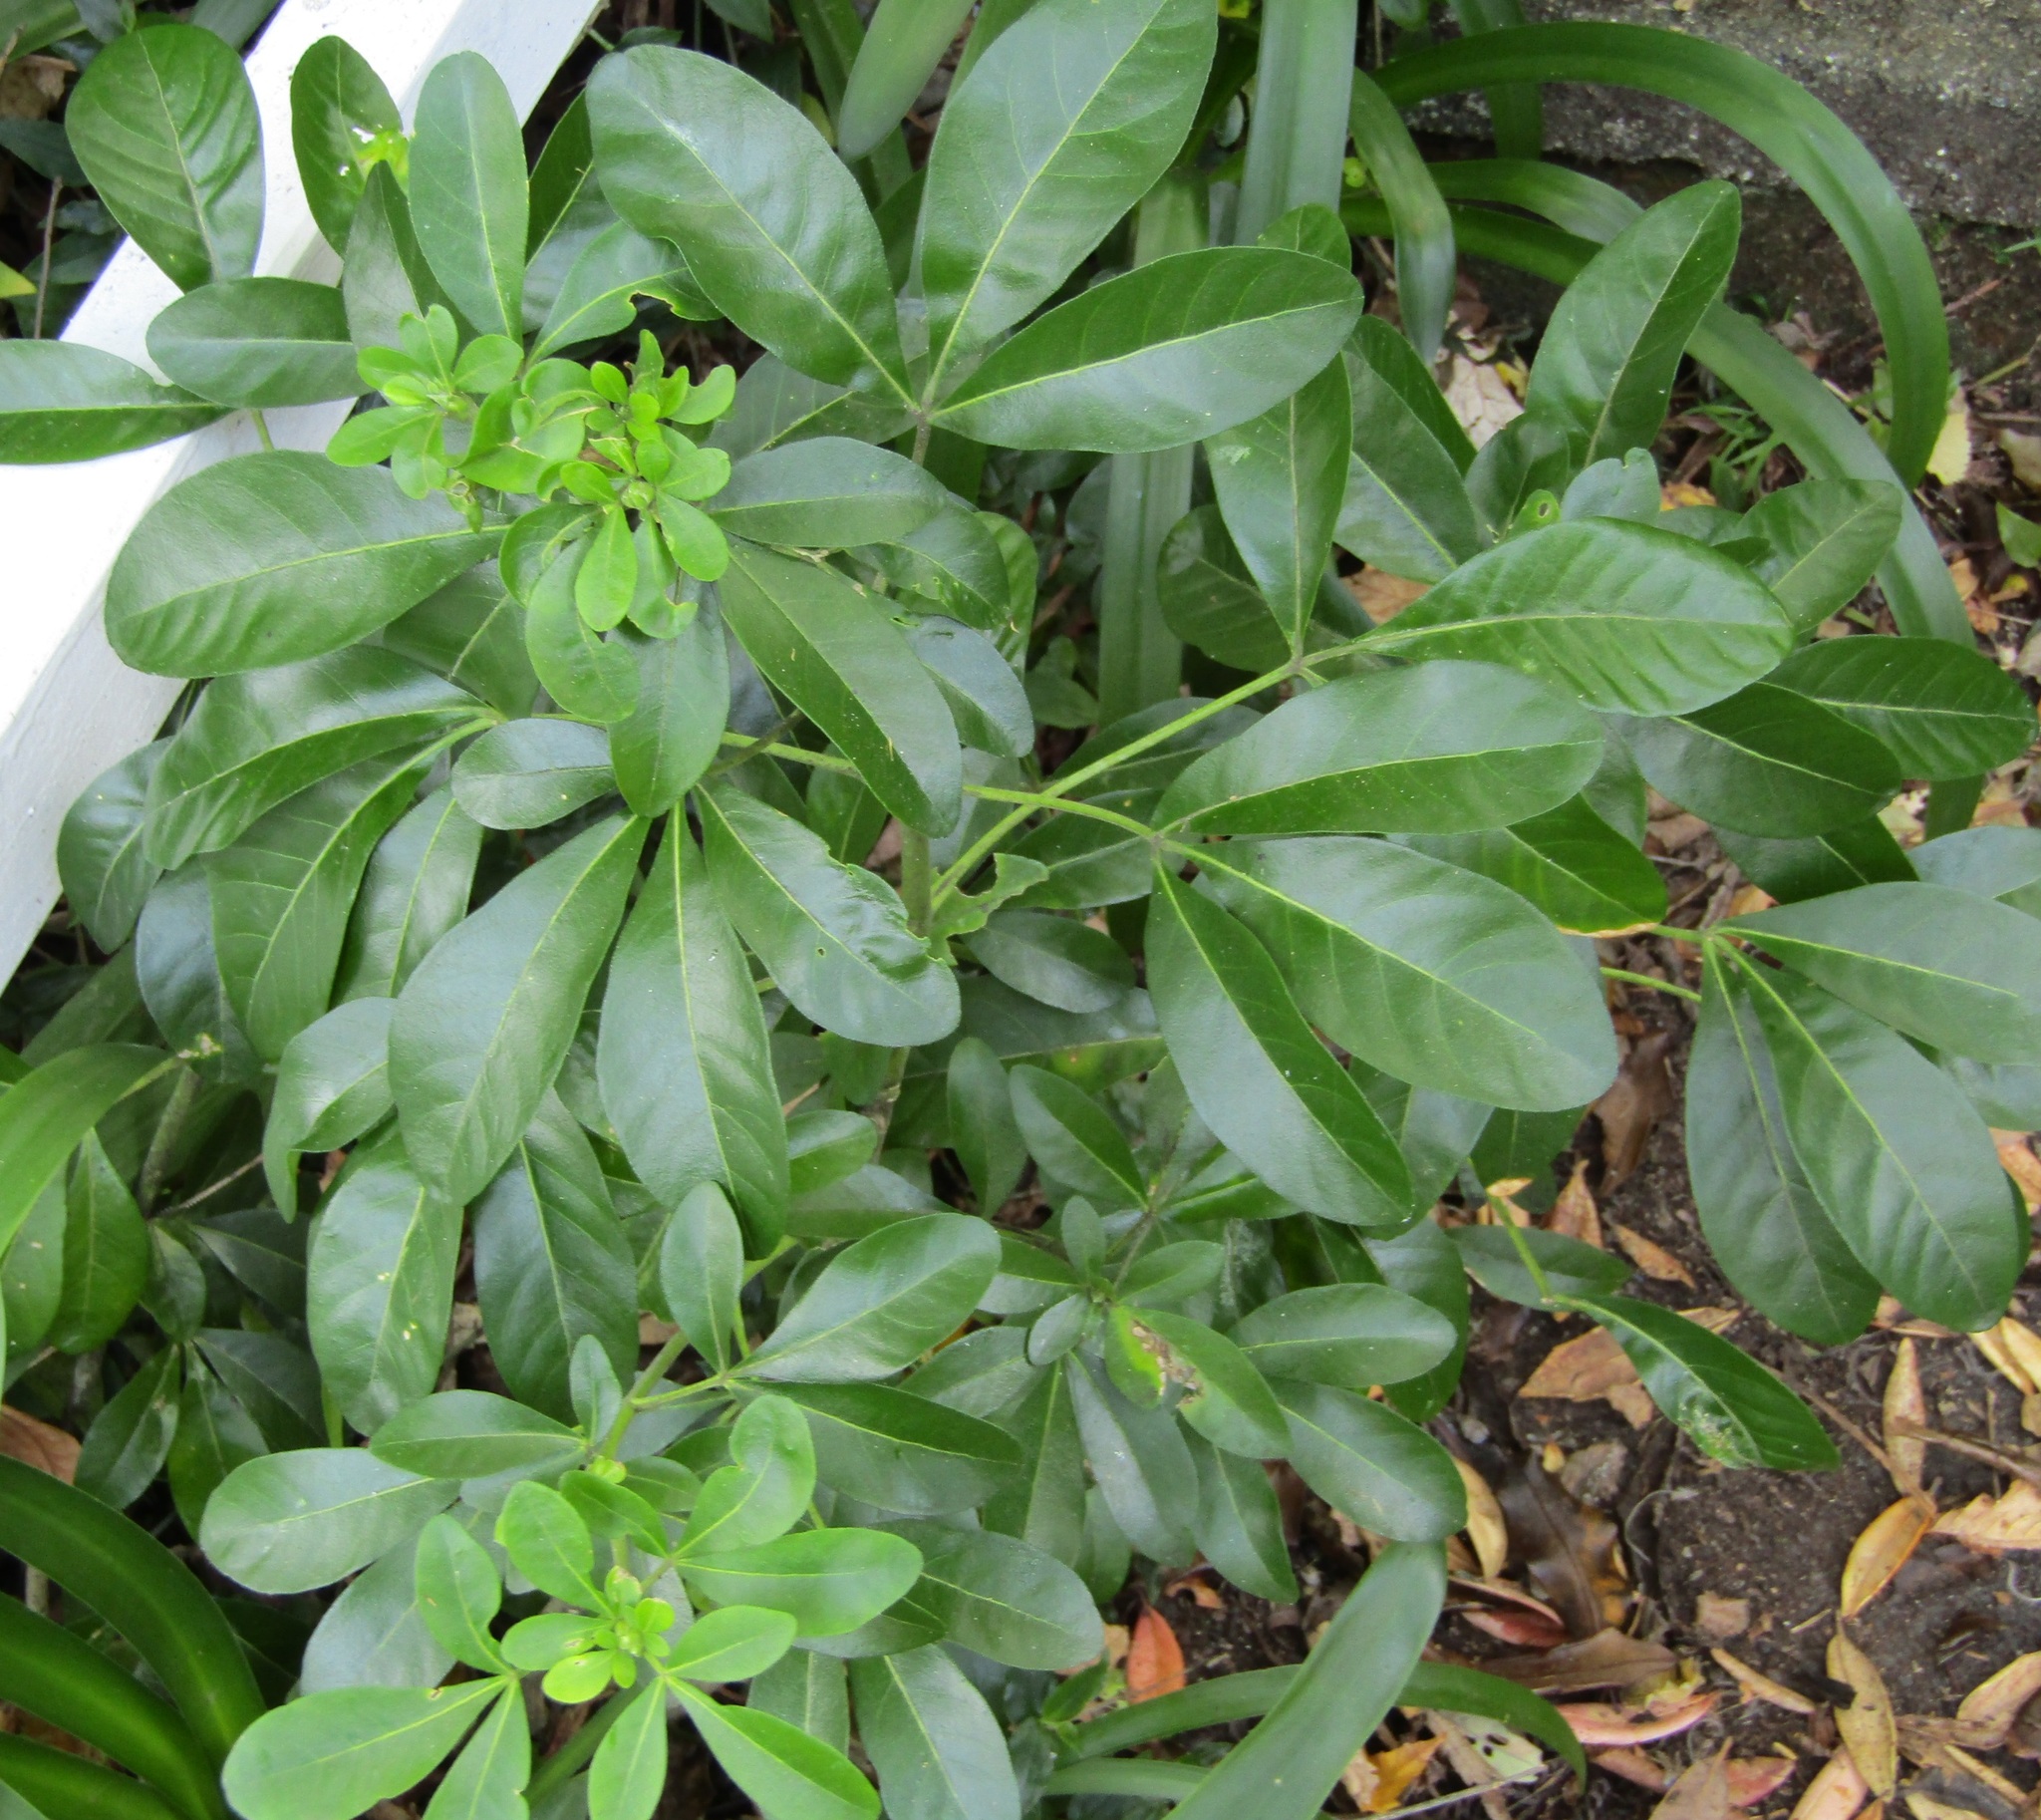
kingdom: Plantae
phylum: Tracheophyta
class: Magnoliopsida
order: Sapindales
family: Rutaceae
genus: Choisya
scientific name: Choisya ternata
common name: Mexican orange
